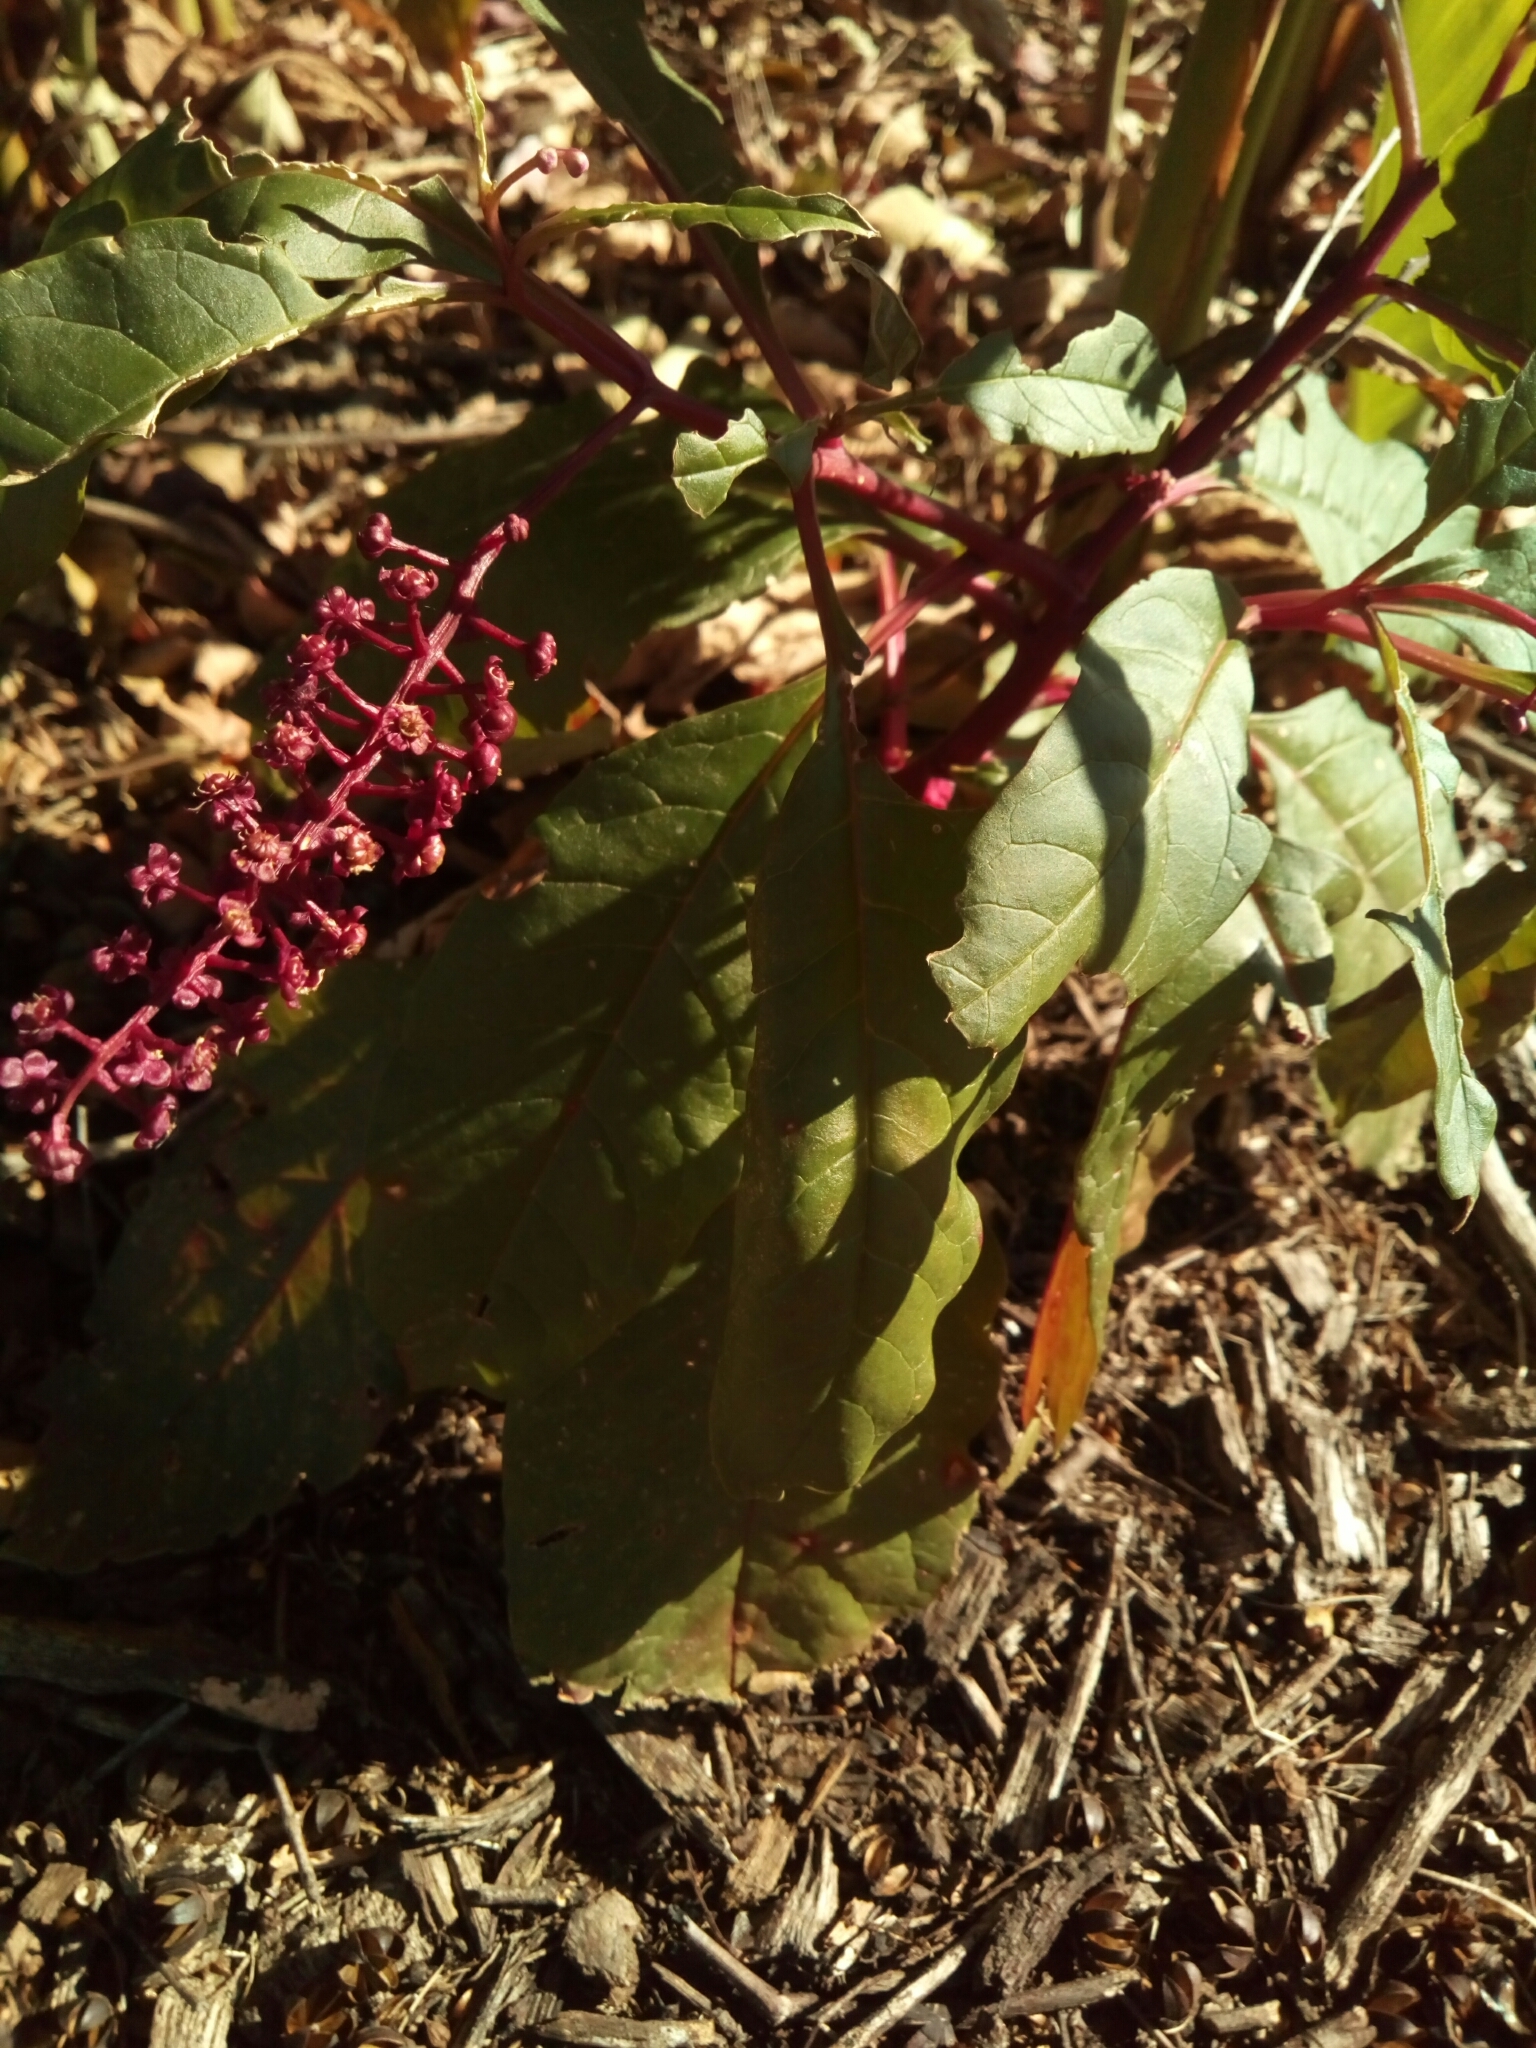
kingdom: Plantae
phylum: Tracheophyta
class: Magnoliopsida
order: Caryophyllales
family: Phytolaccaceae
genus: Phytolacca
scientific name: Phytolacca americana
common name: American pokeweed
